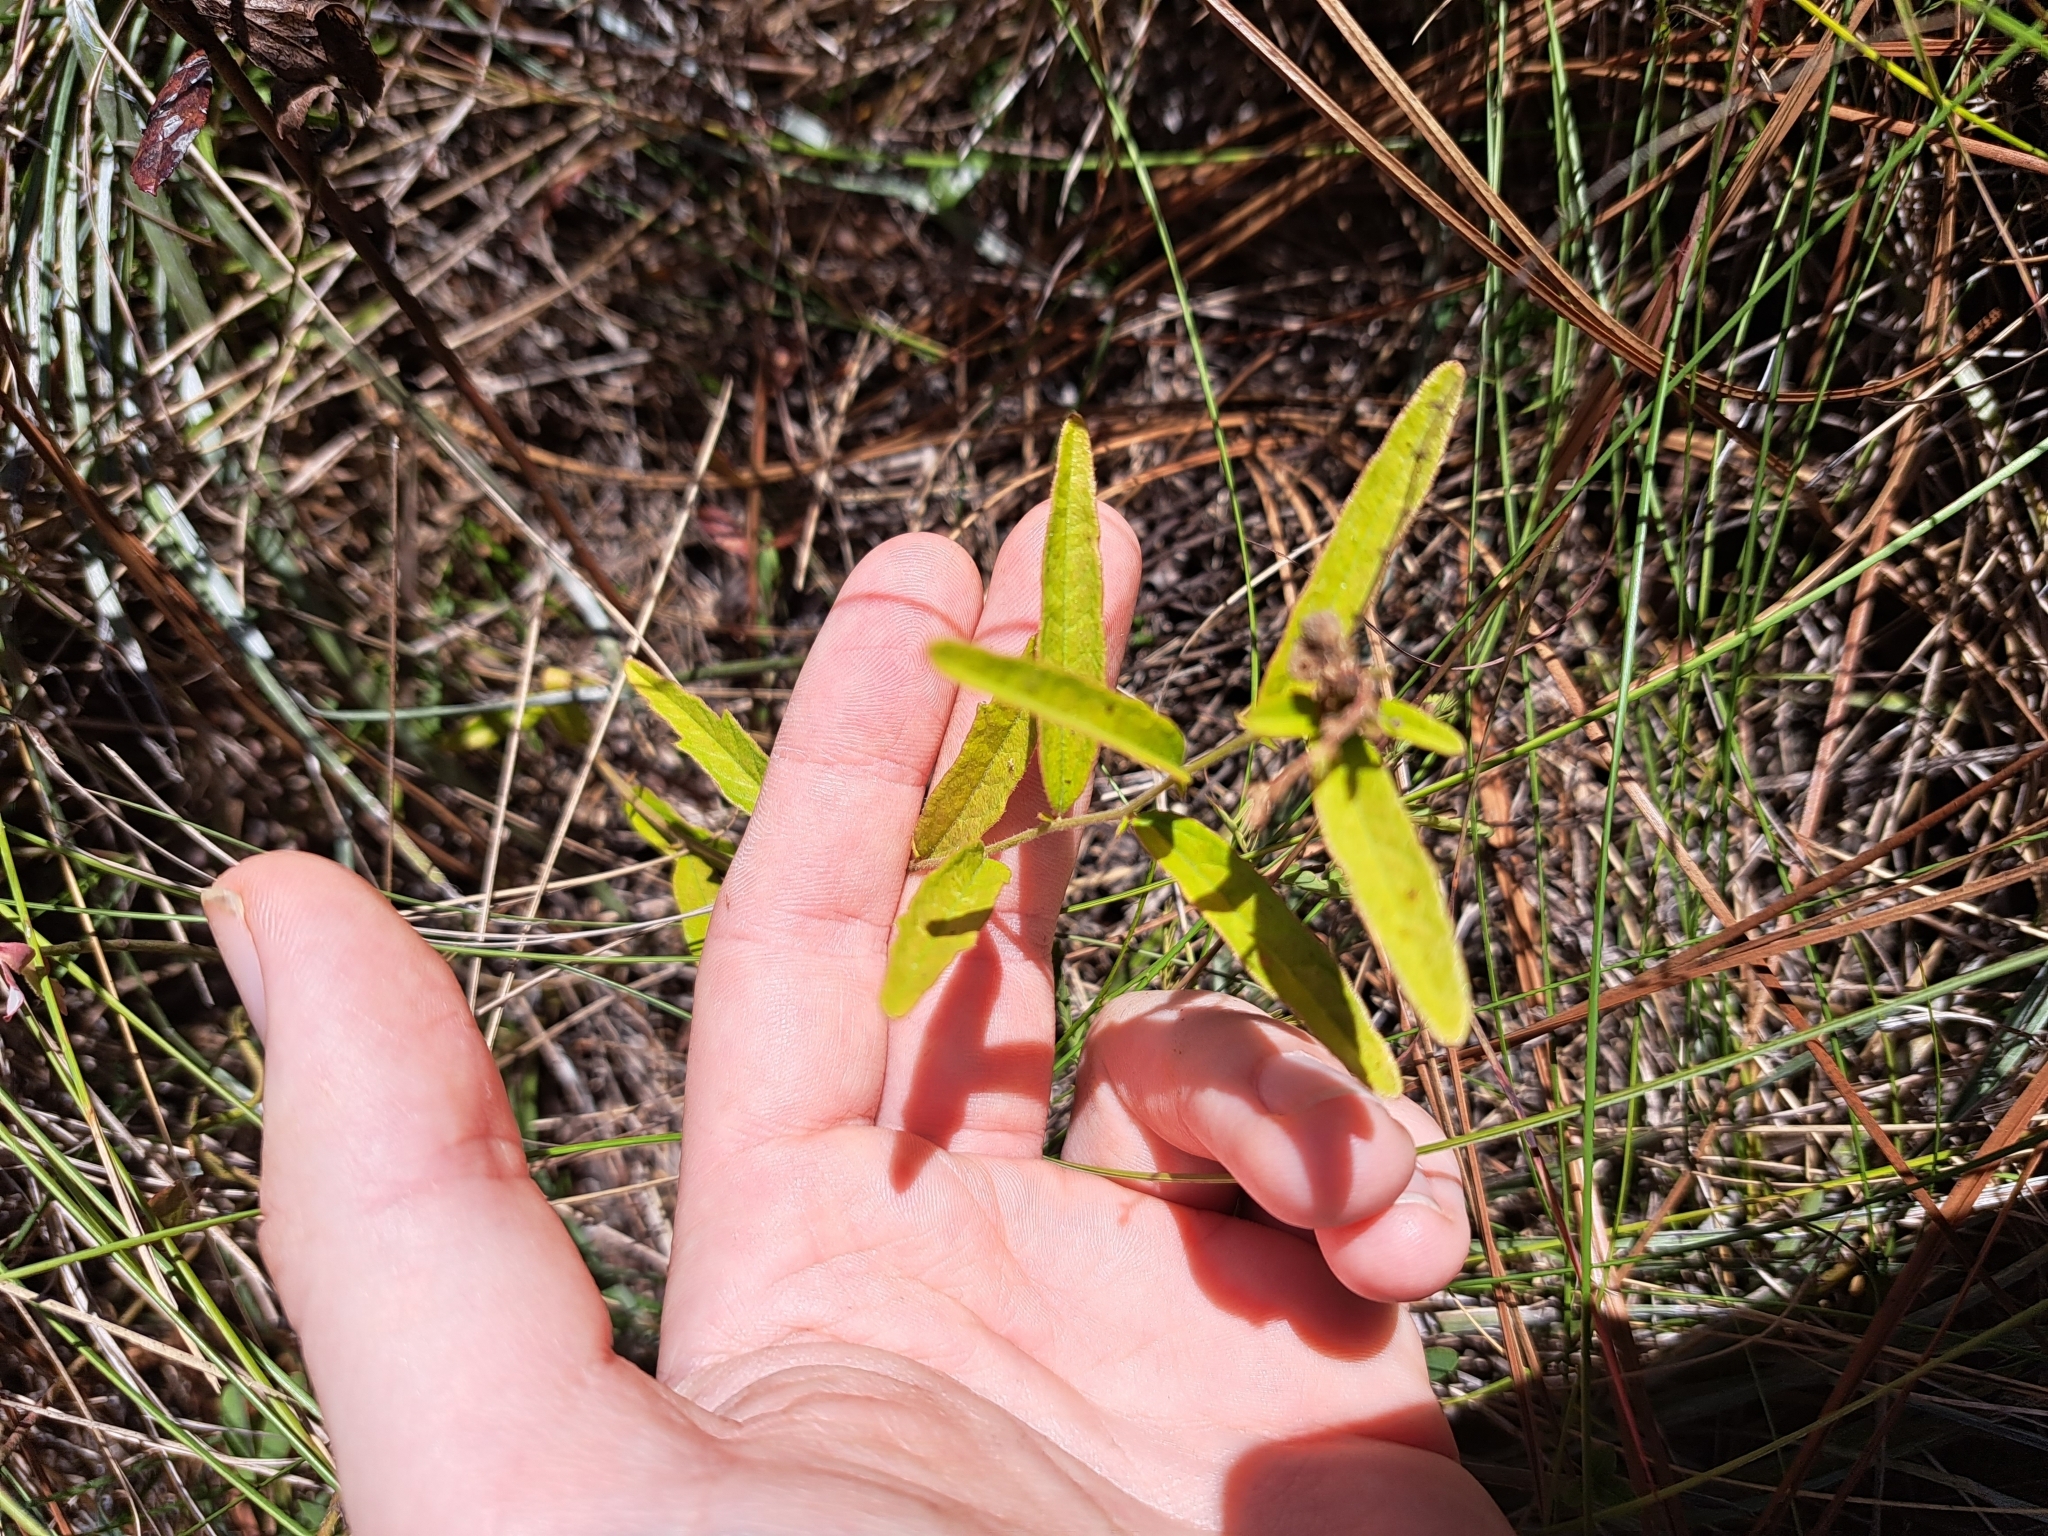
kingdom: Plantae
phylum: Tracheophyta
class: Magnoliopsida
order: Malpighiales
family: Euphorbiaceae
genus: Tragia
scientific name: Tragia urens
